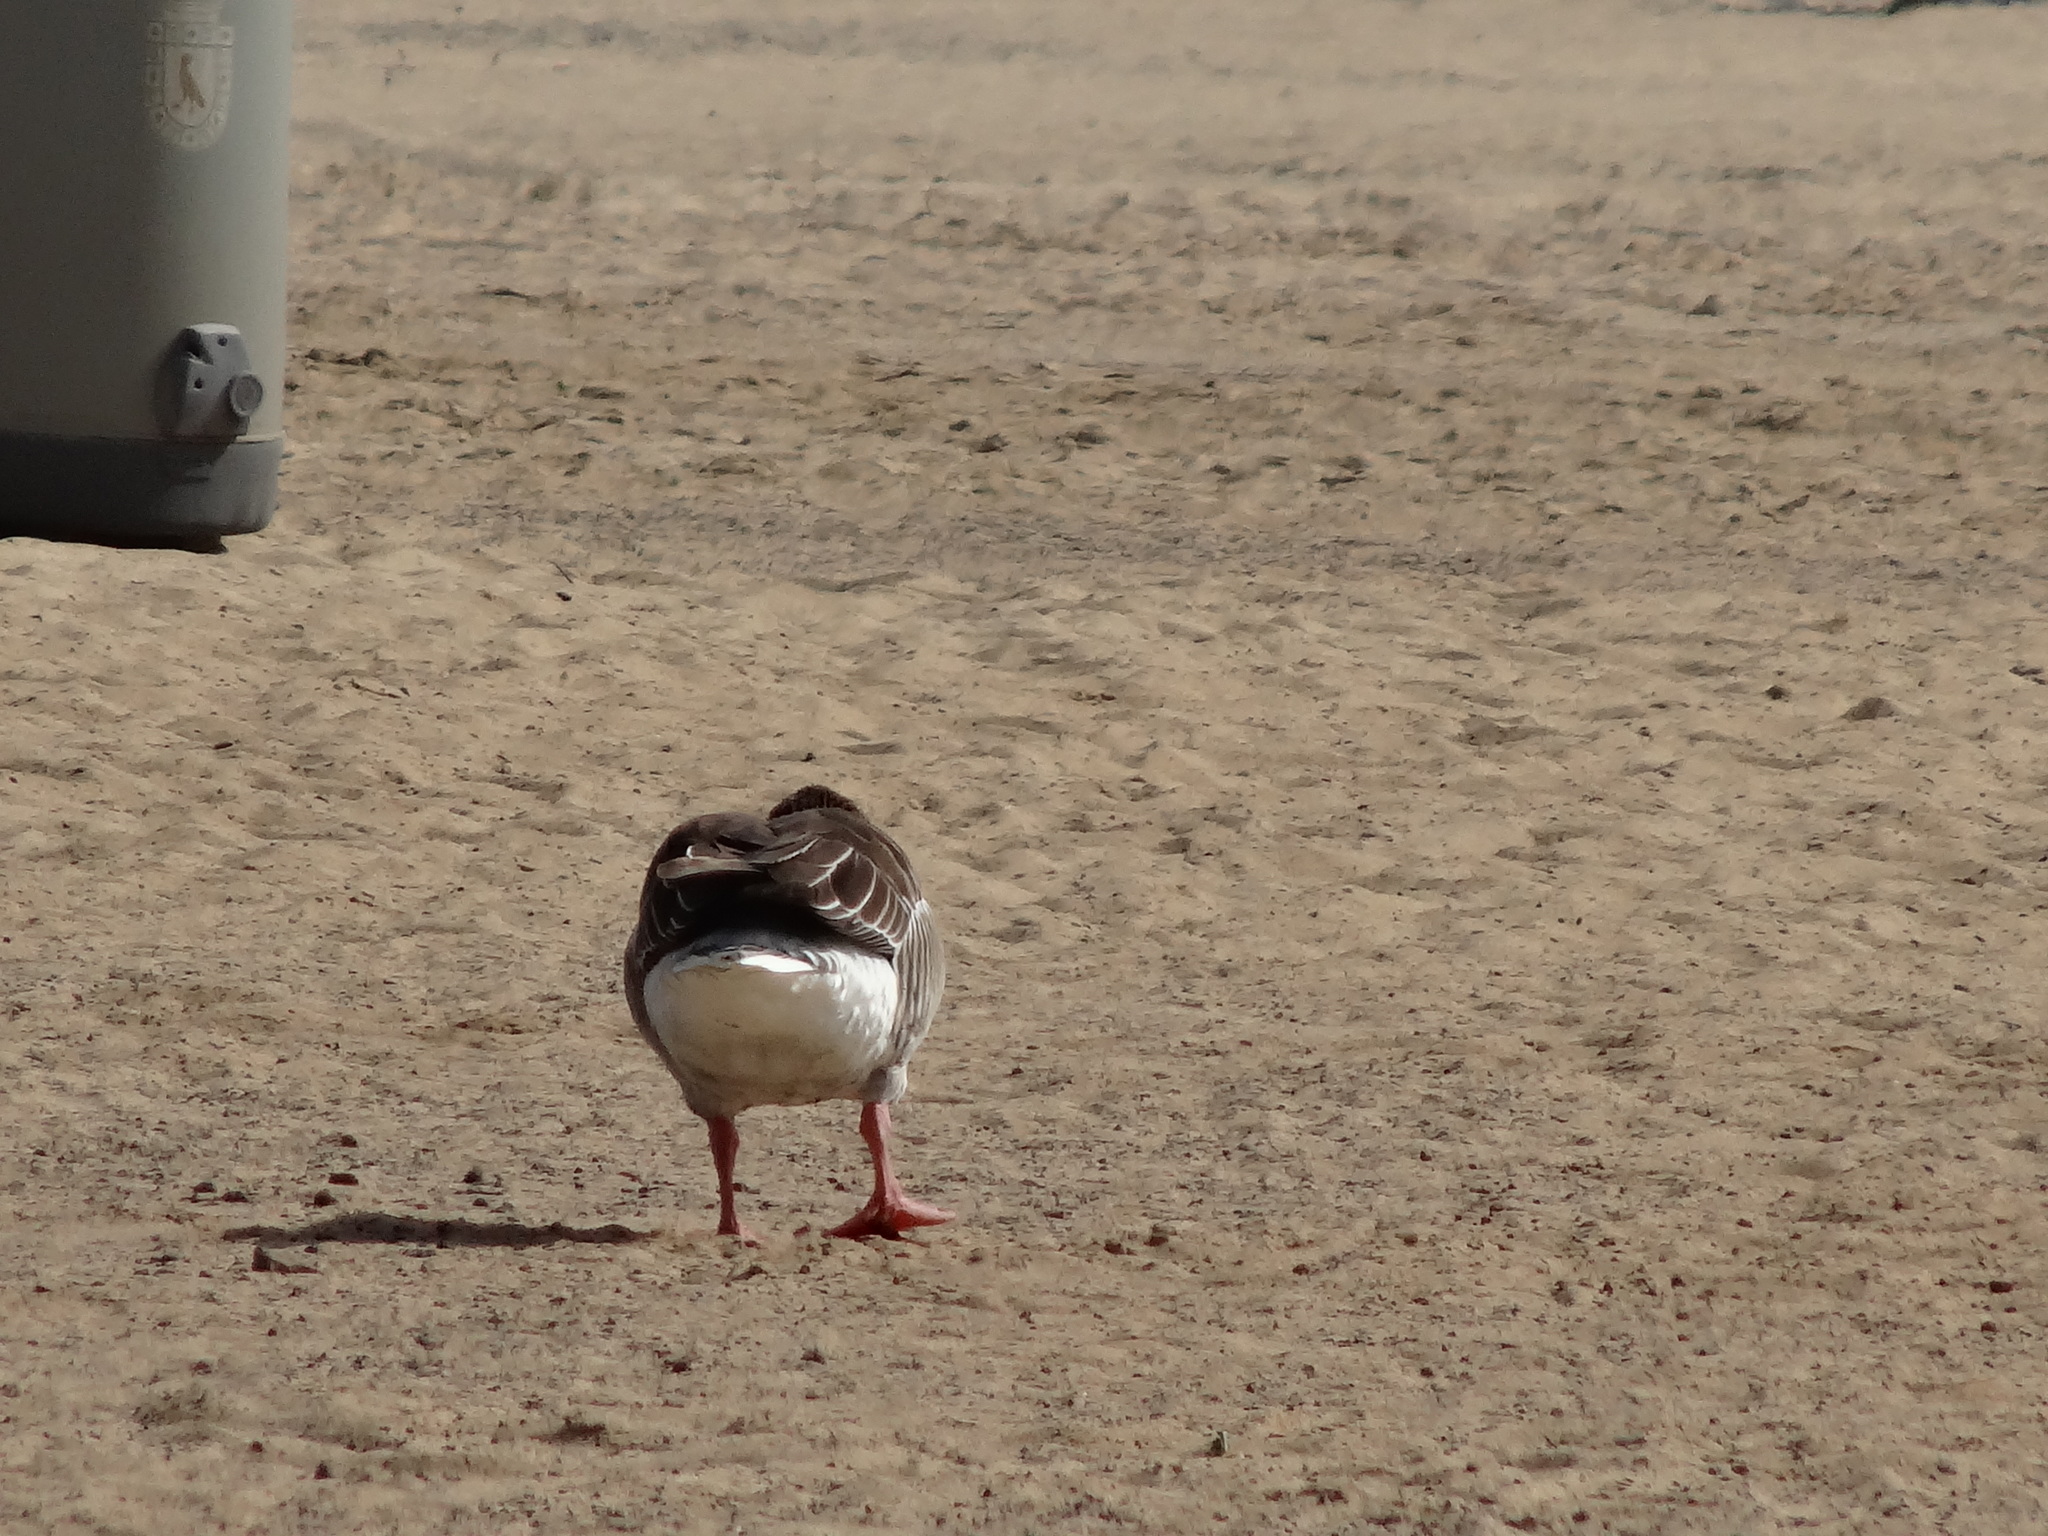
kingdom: Animalia
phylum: Chordata
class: Aves
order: Anseriformes
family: Anatidae
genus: Anser
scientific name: Anser anser
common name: Greylag goose
